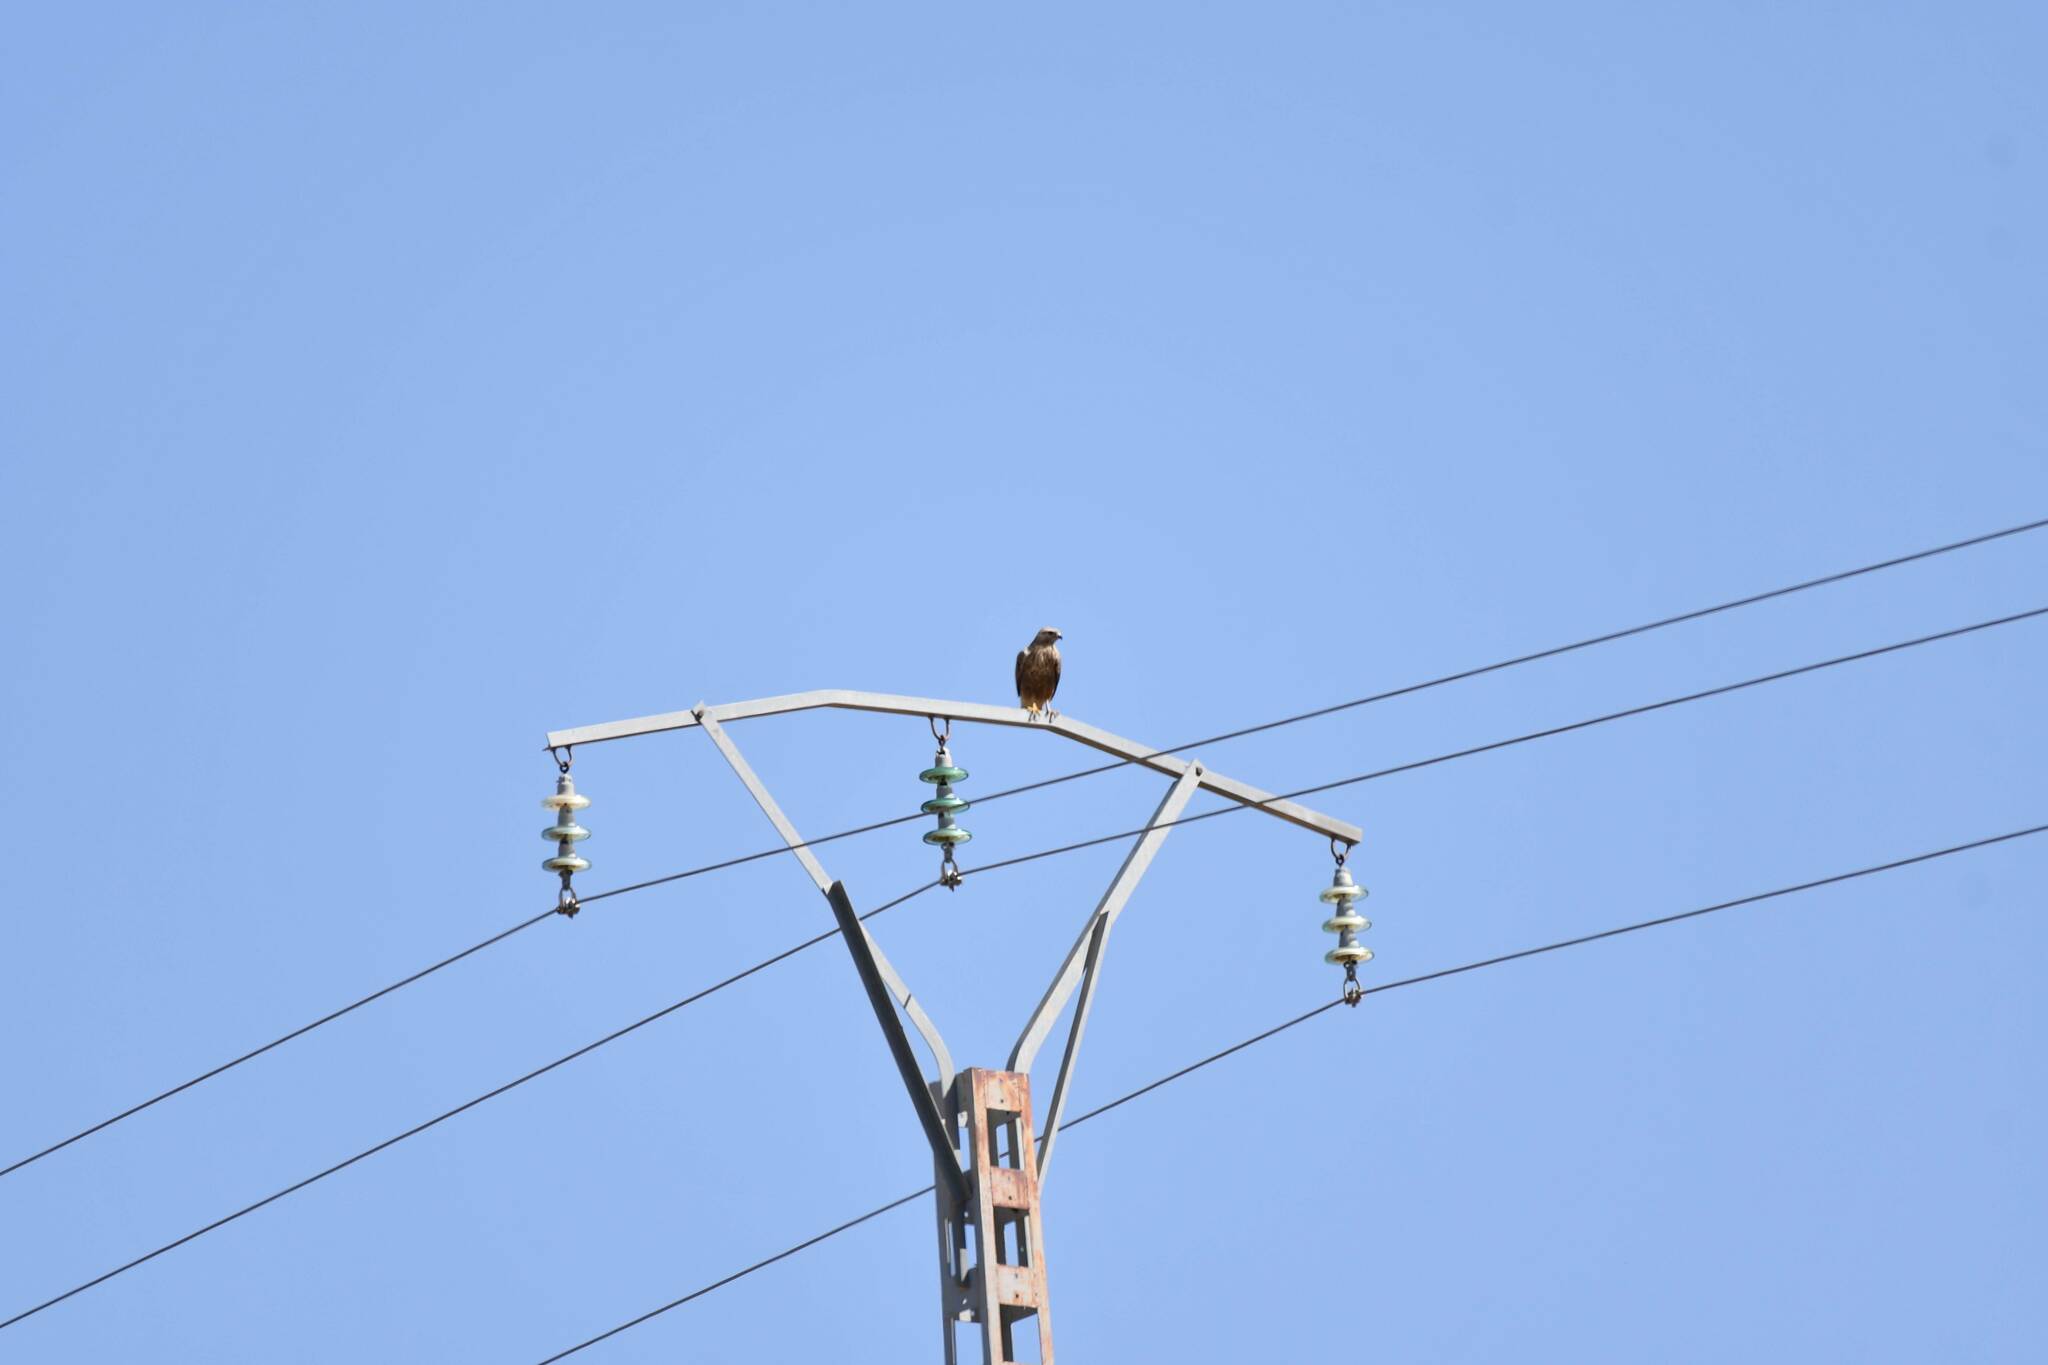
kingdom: Animalia
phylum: Chordata
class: Aves
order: Accipitriformes
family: Accipitridae
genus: Buteo
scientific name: Buteo rufinus
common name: Long-legged buzzard
